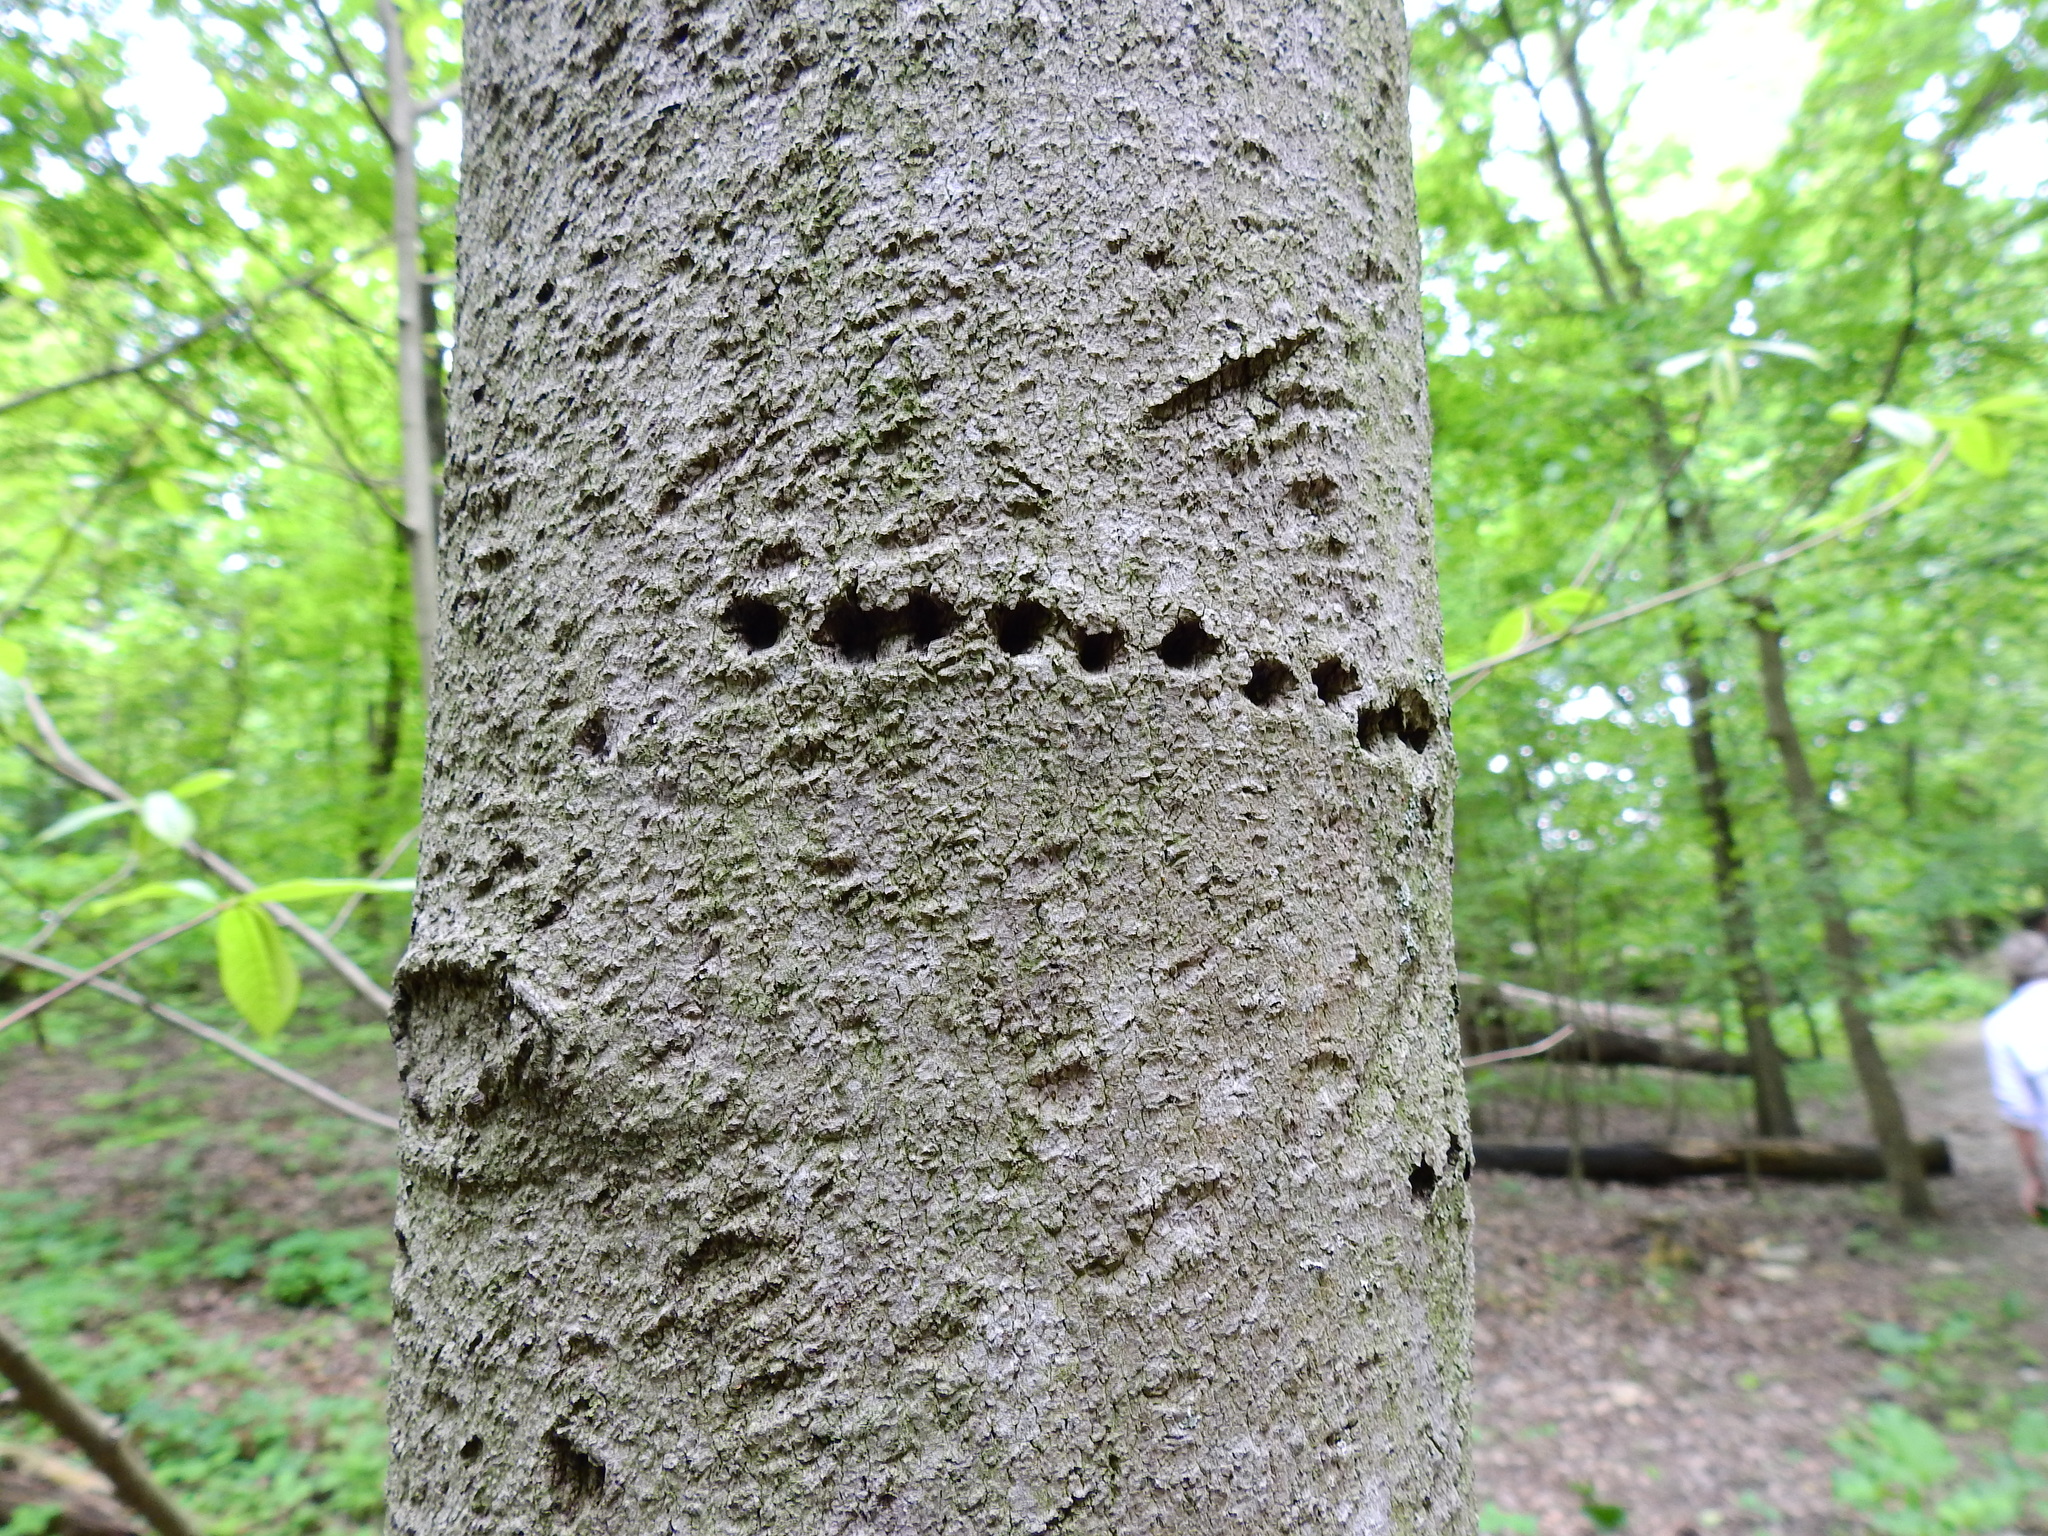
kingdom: Animalia
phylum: Chordata
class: Aves
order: Piciformes
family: Picidae
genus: Sphyrapicus
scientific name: Sphyrapicus varius
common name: Yellow-bellied sapsucker
